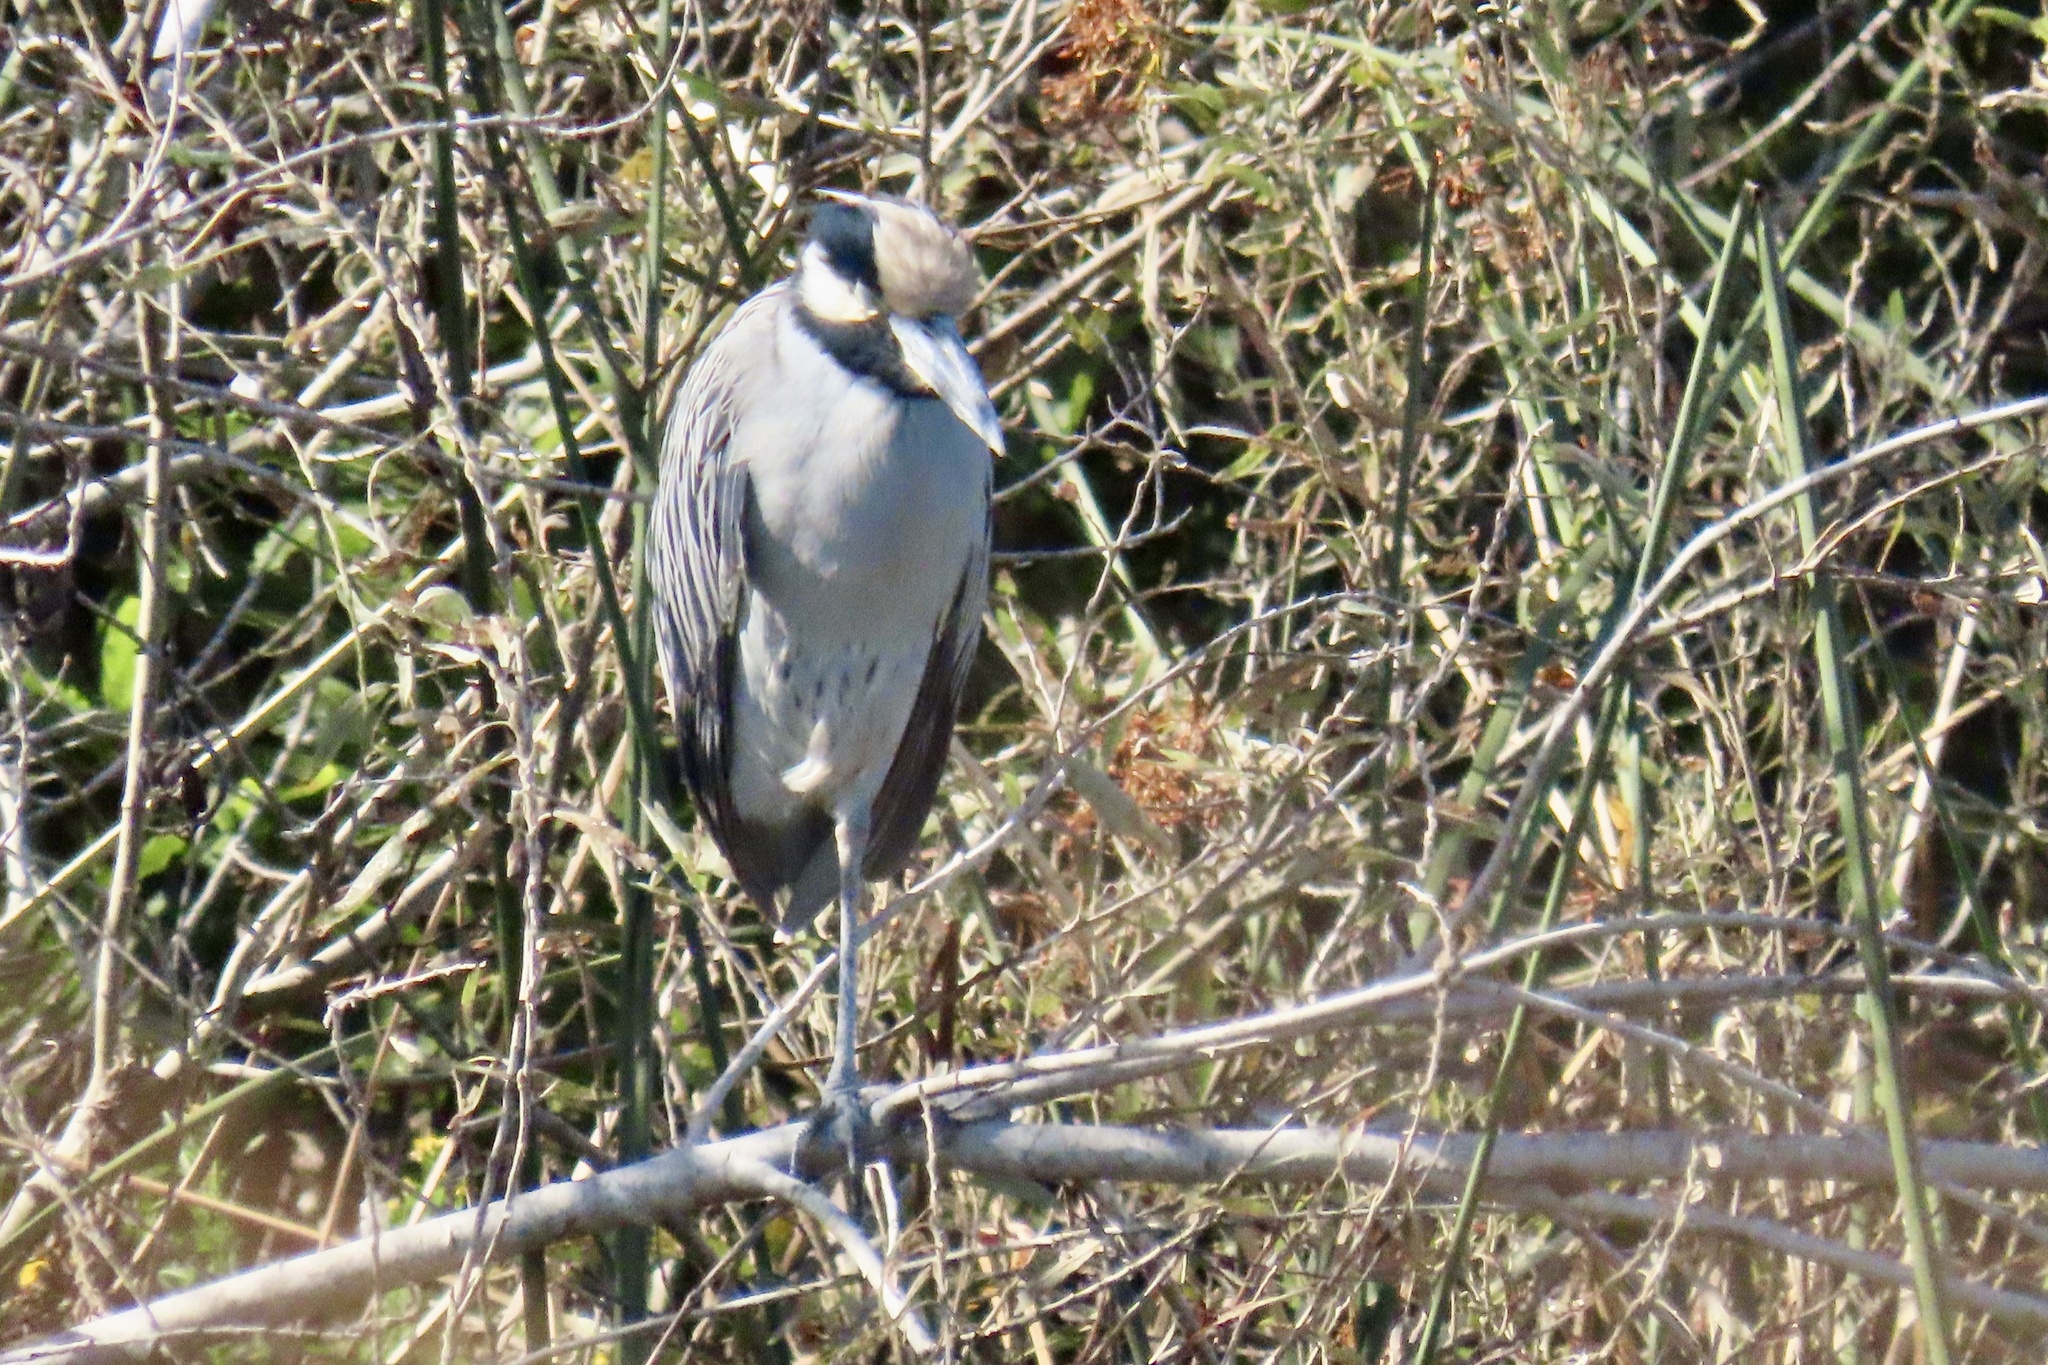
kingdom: Animalia
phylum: Chordata
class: Aves
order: Pelecaniformes
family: Ardeidae
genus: Nyctanassa
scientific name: Nyctanassa violacea
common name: Yellow-crowned night heron
